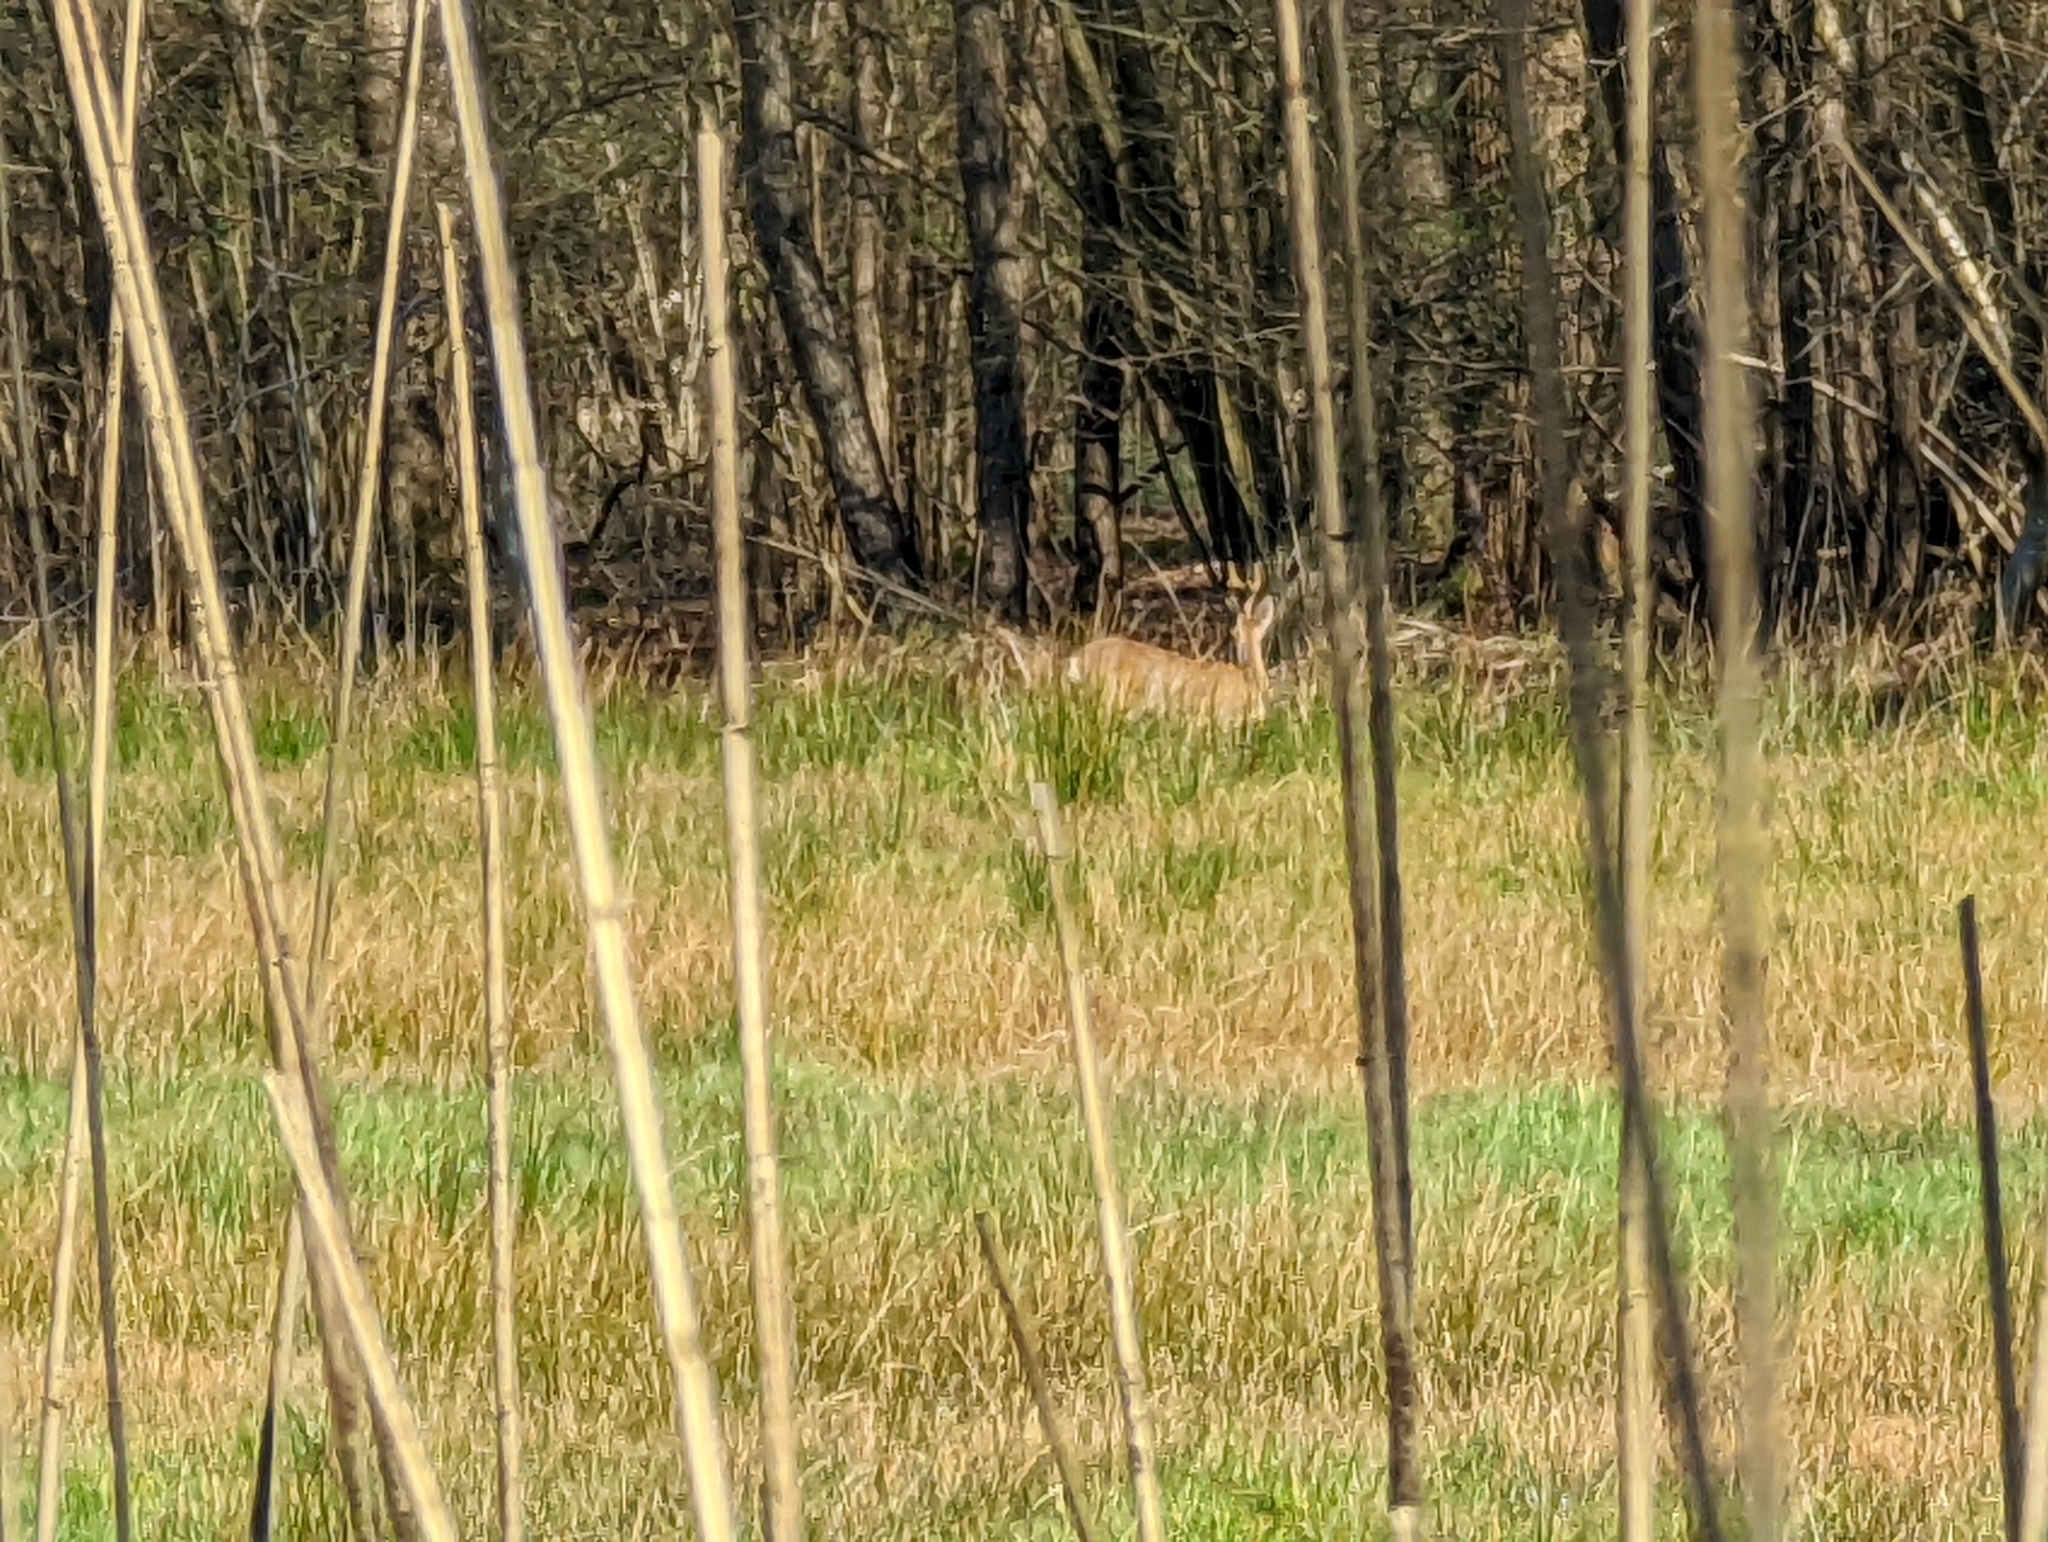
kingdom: Animalia
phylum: Chordata
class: Mammalia
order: Artiodactyla
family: Cervidae
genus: Capreolus
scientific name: Capreolus capreolus
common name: Western roe deer
